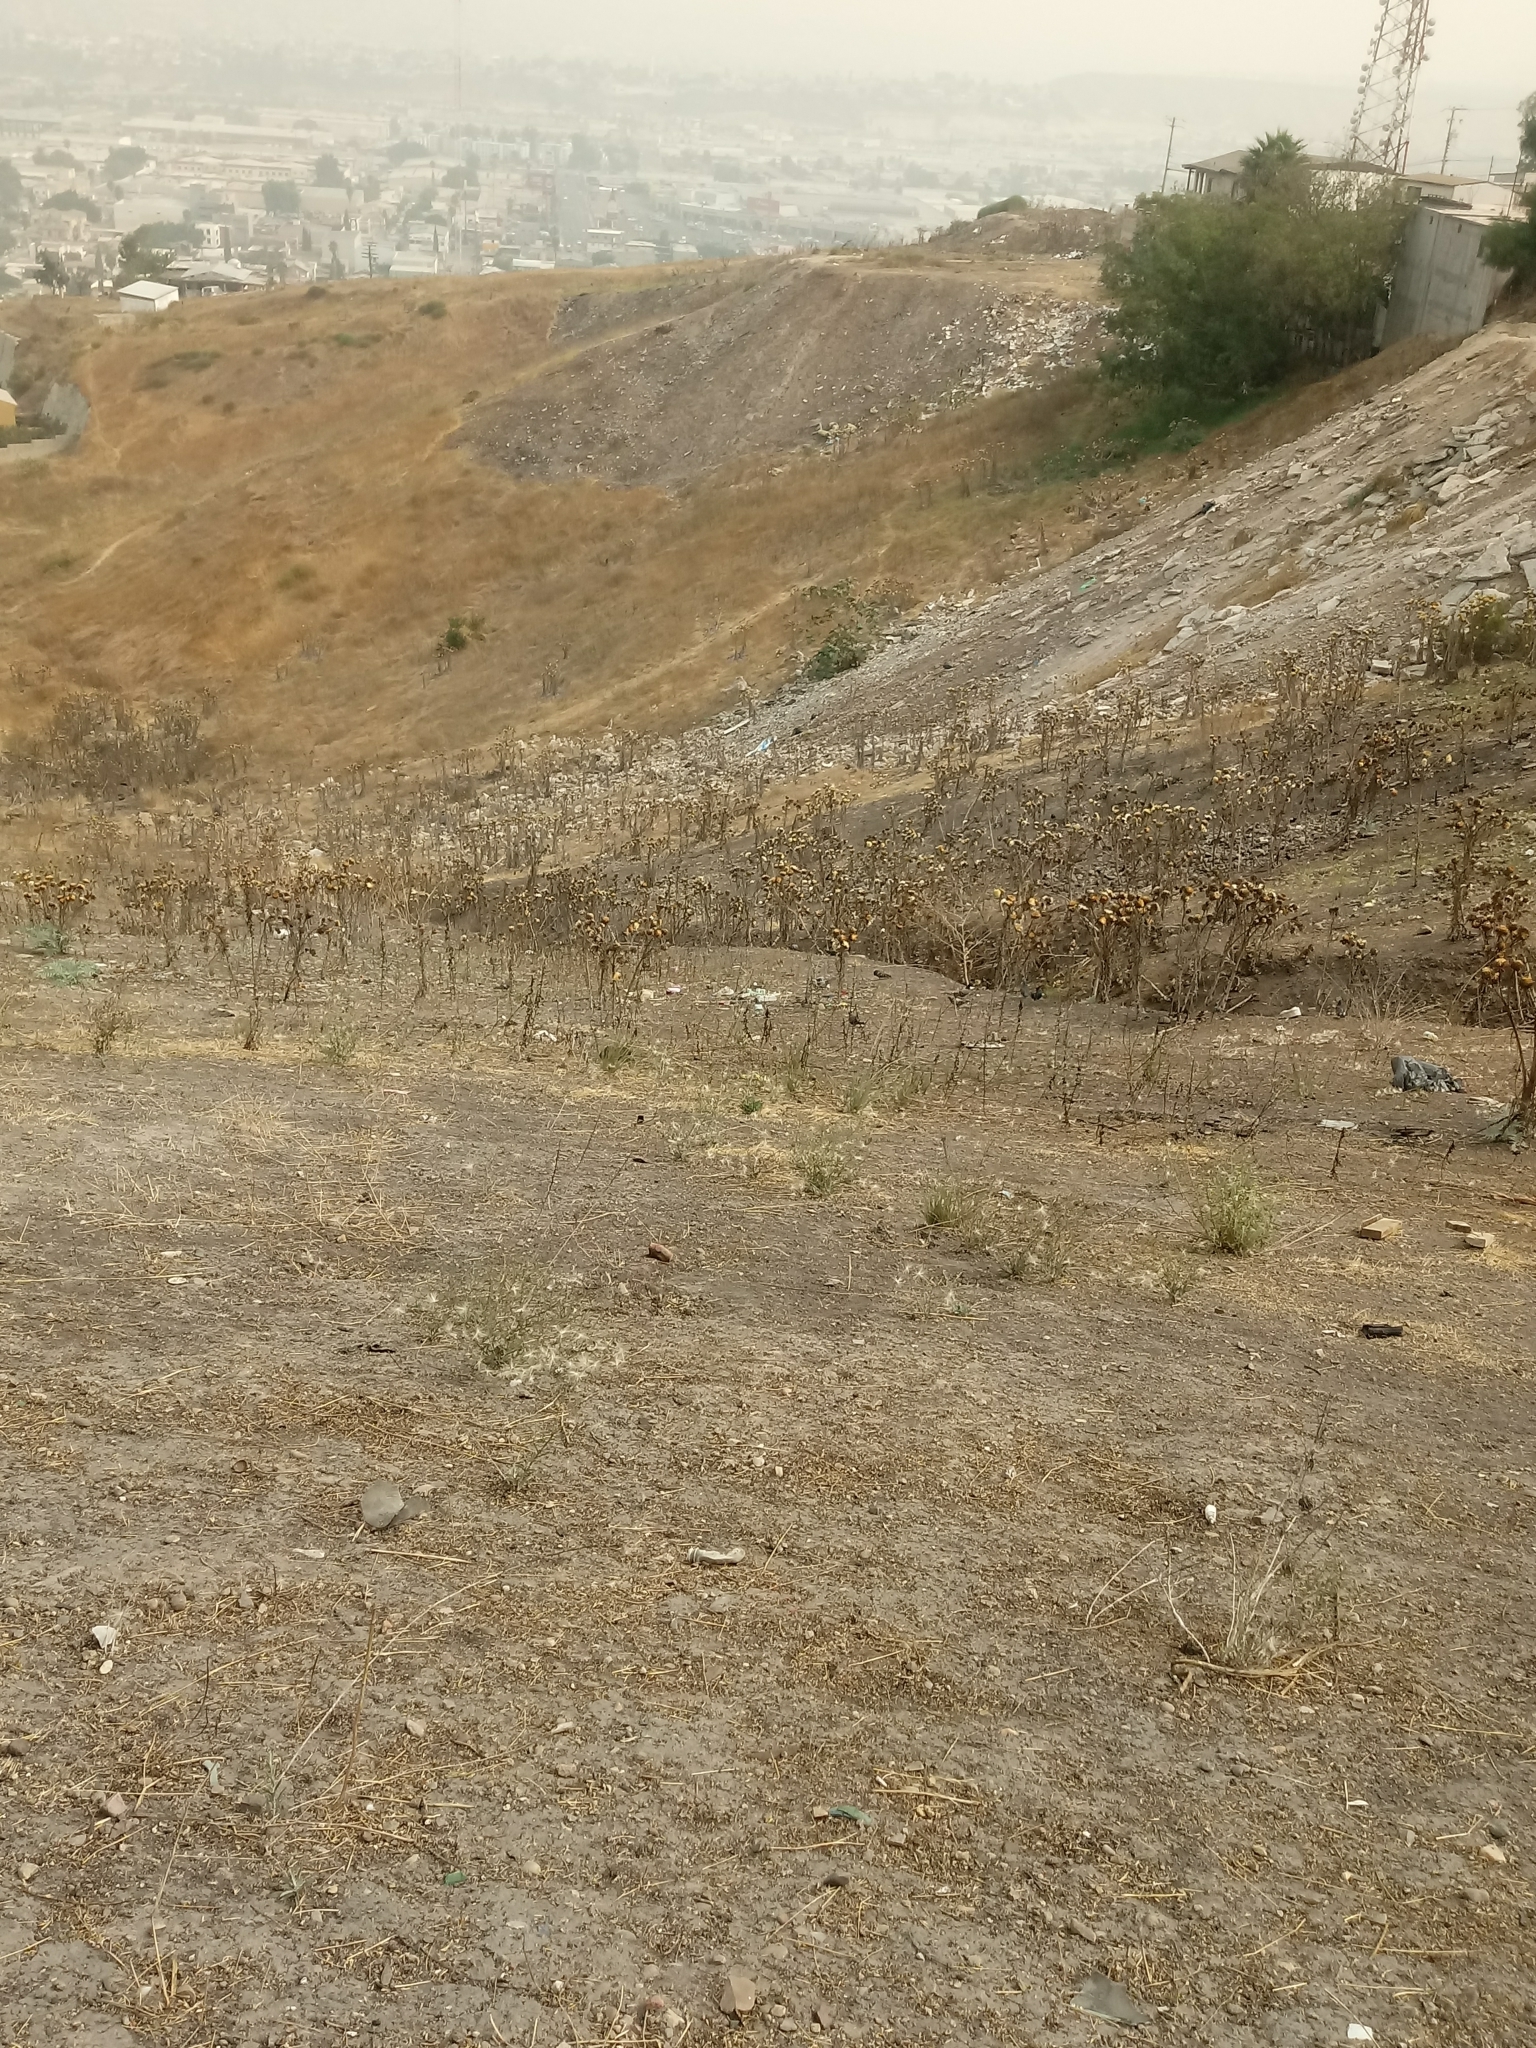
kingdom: Plantae
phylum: Tracheophyta
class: Magnoliopsida
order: Asterales
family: Asteraceae
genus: Cynara
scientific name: Cynara cardunculus
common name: Globe artichoke
